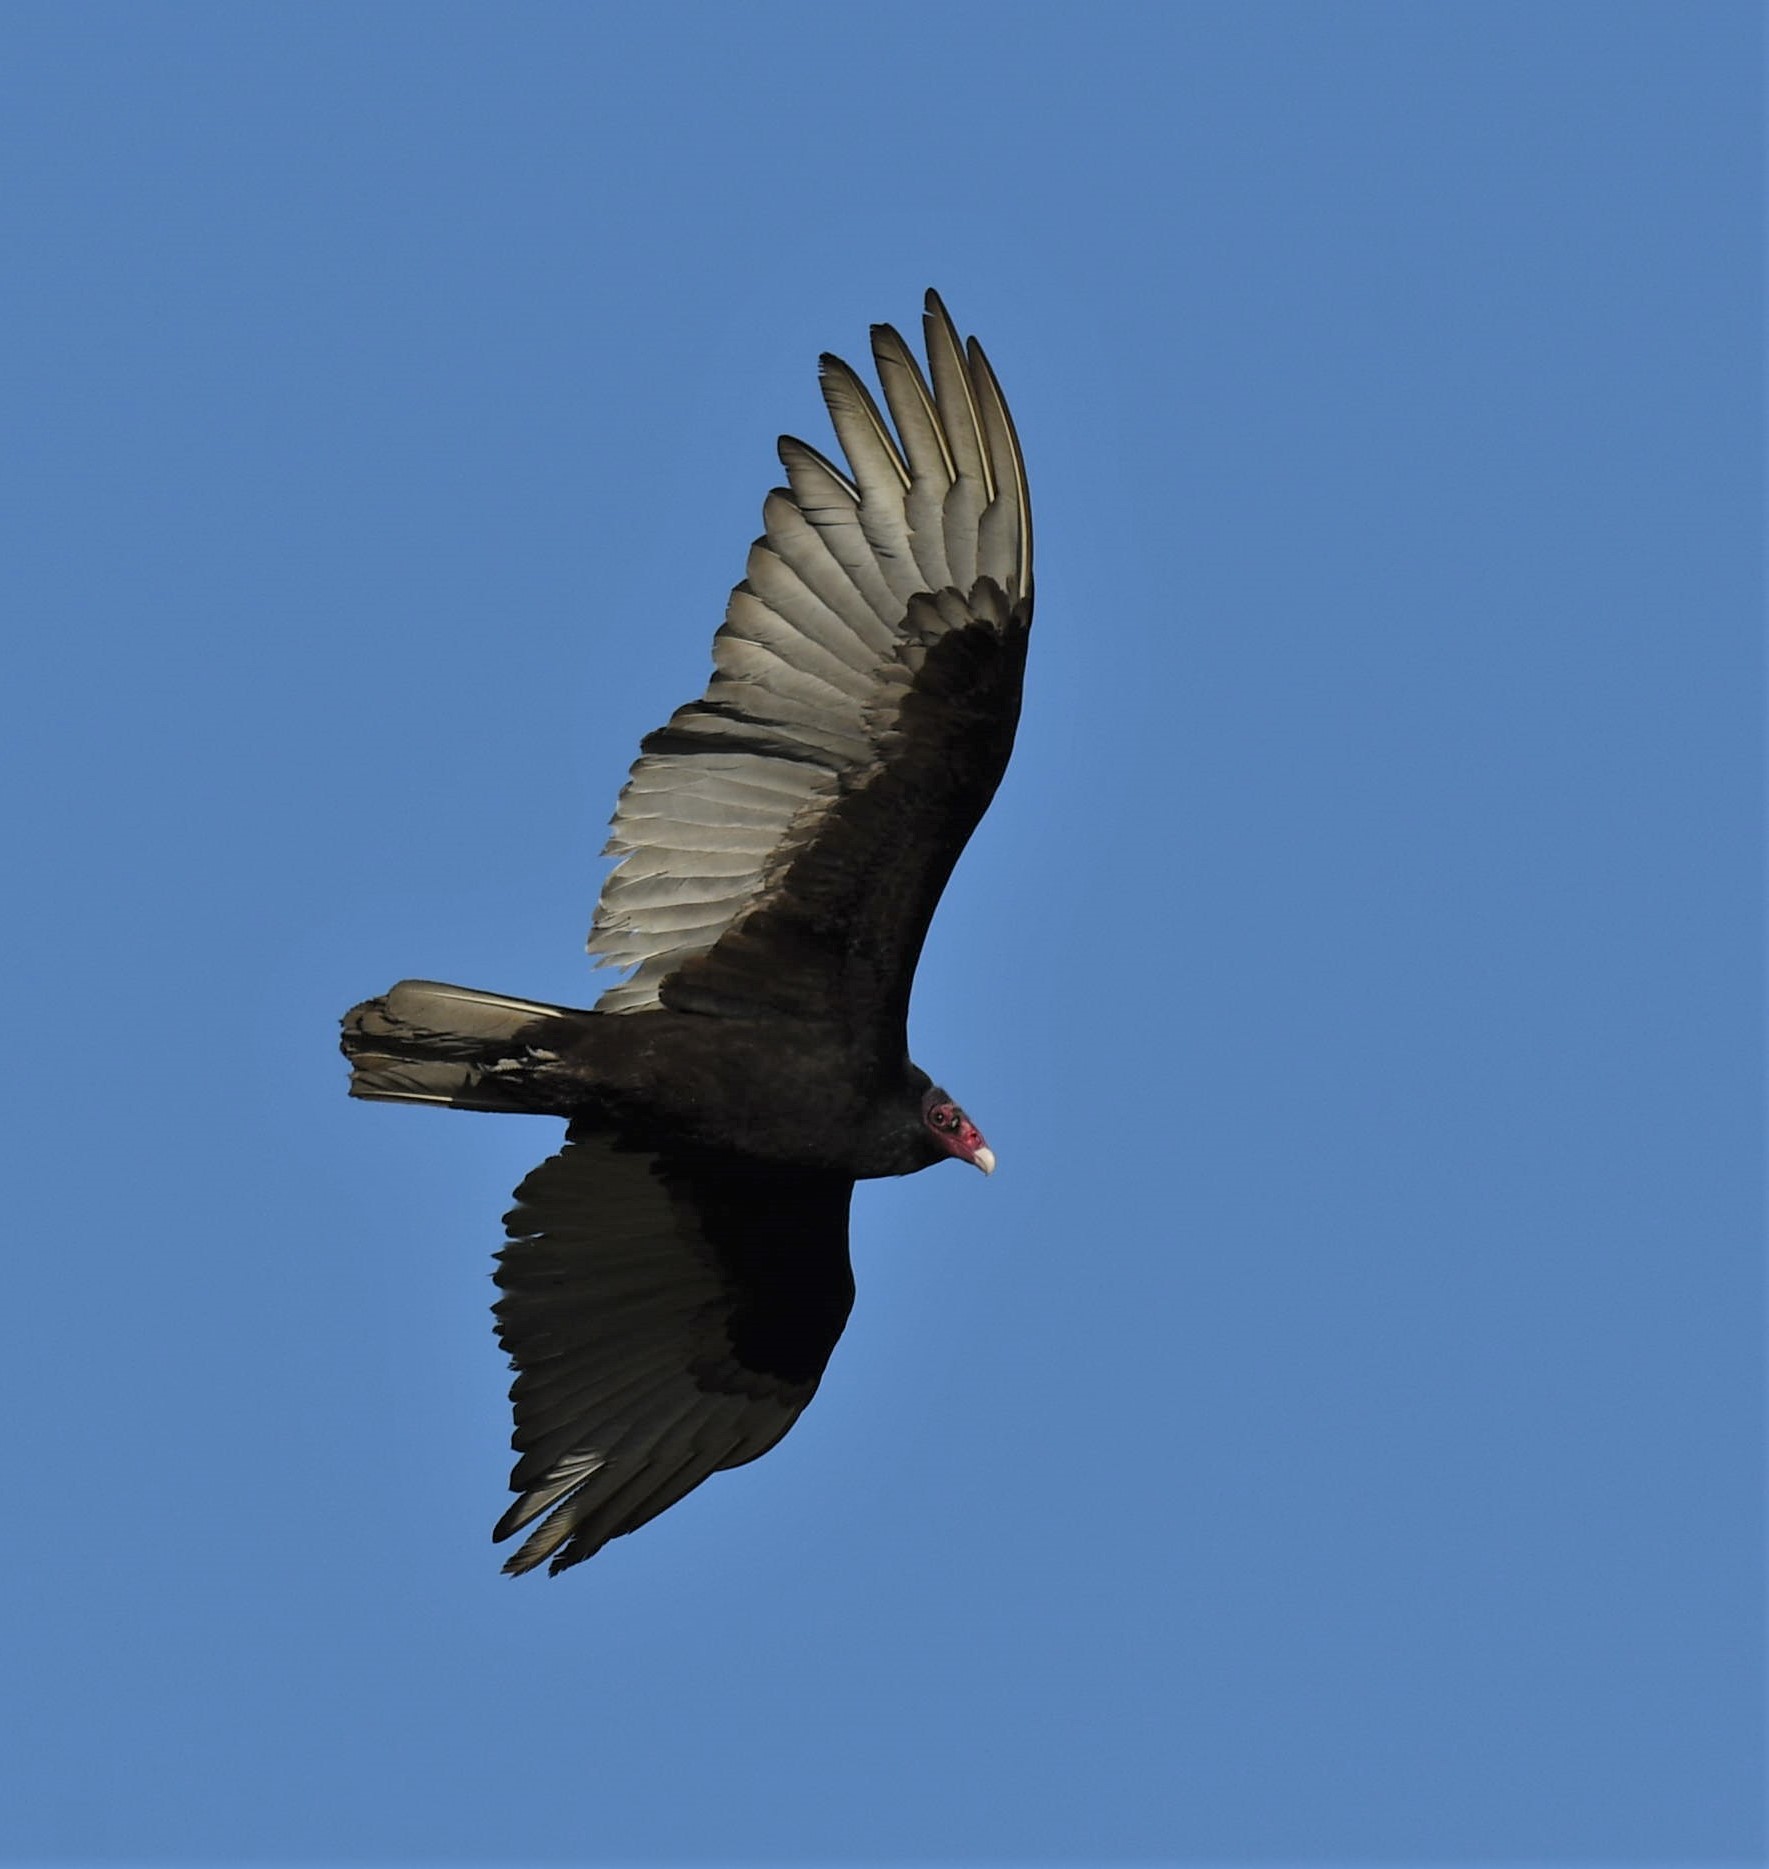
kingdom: Animalia
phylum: Chordata
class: Aves
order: Accipitriformes
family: Cathartidae
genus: Cathartes
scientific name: Cathartes aura
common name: Turkey vulture
